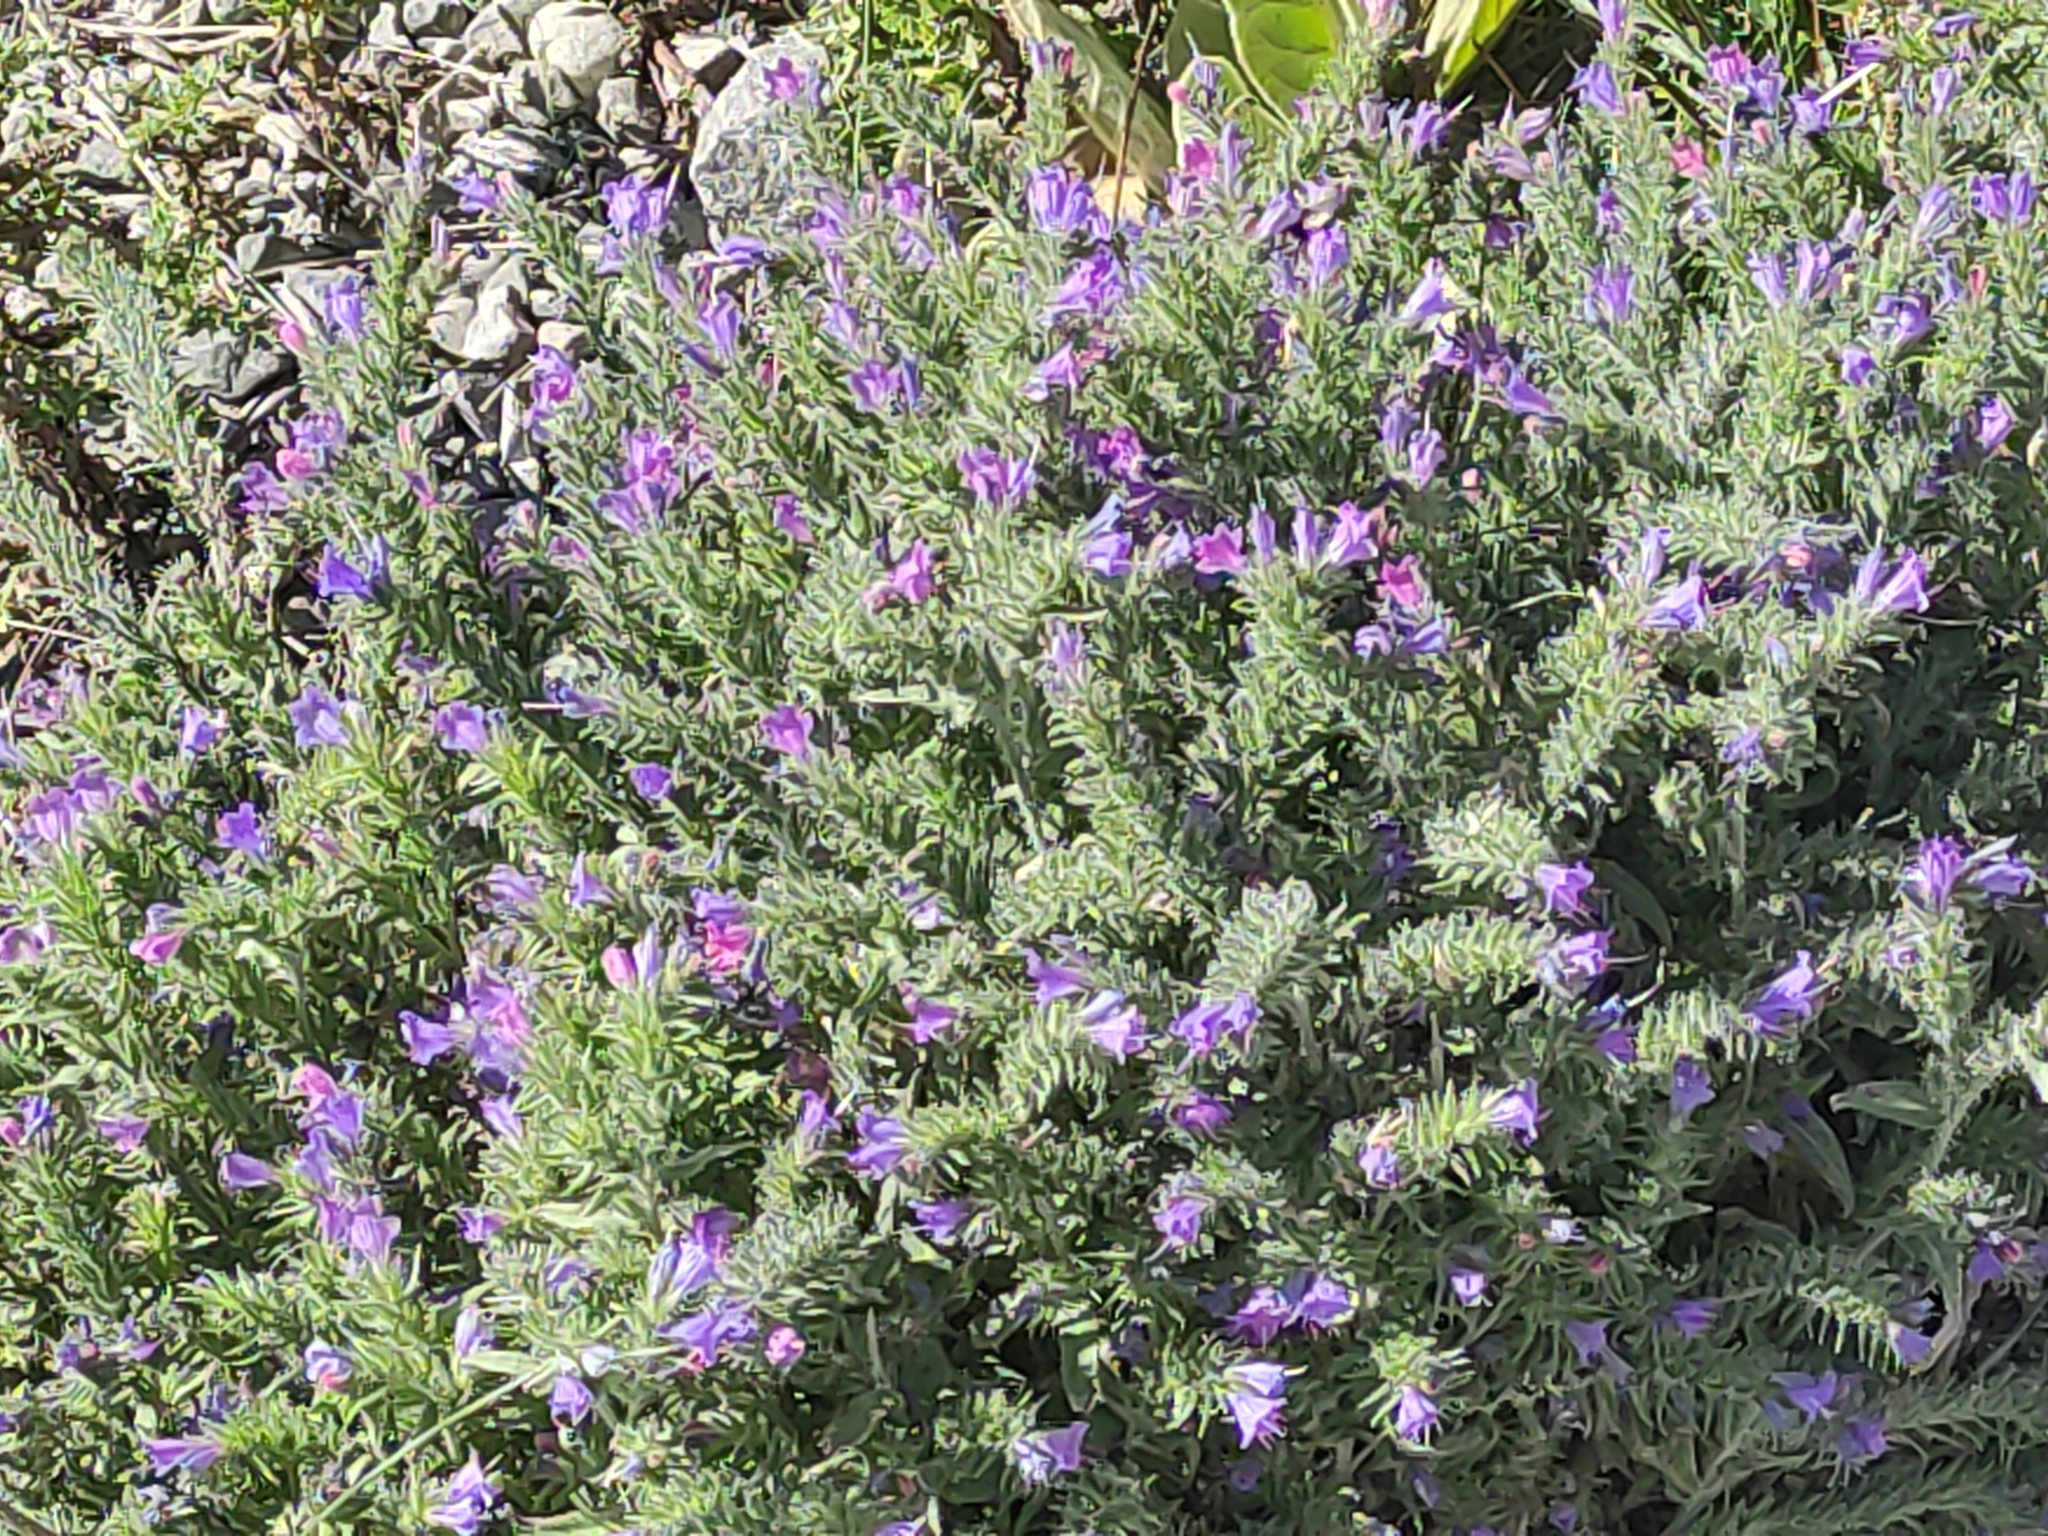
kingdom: Plantae
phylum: Tracheophyta
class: Magnoliopsida
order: Boraginales
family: Boraginaceae
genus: Echium
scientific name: Echium vulgare
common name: Common viper's bugloss
